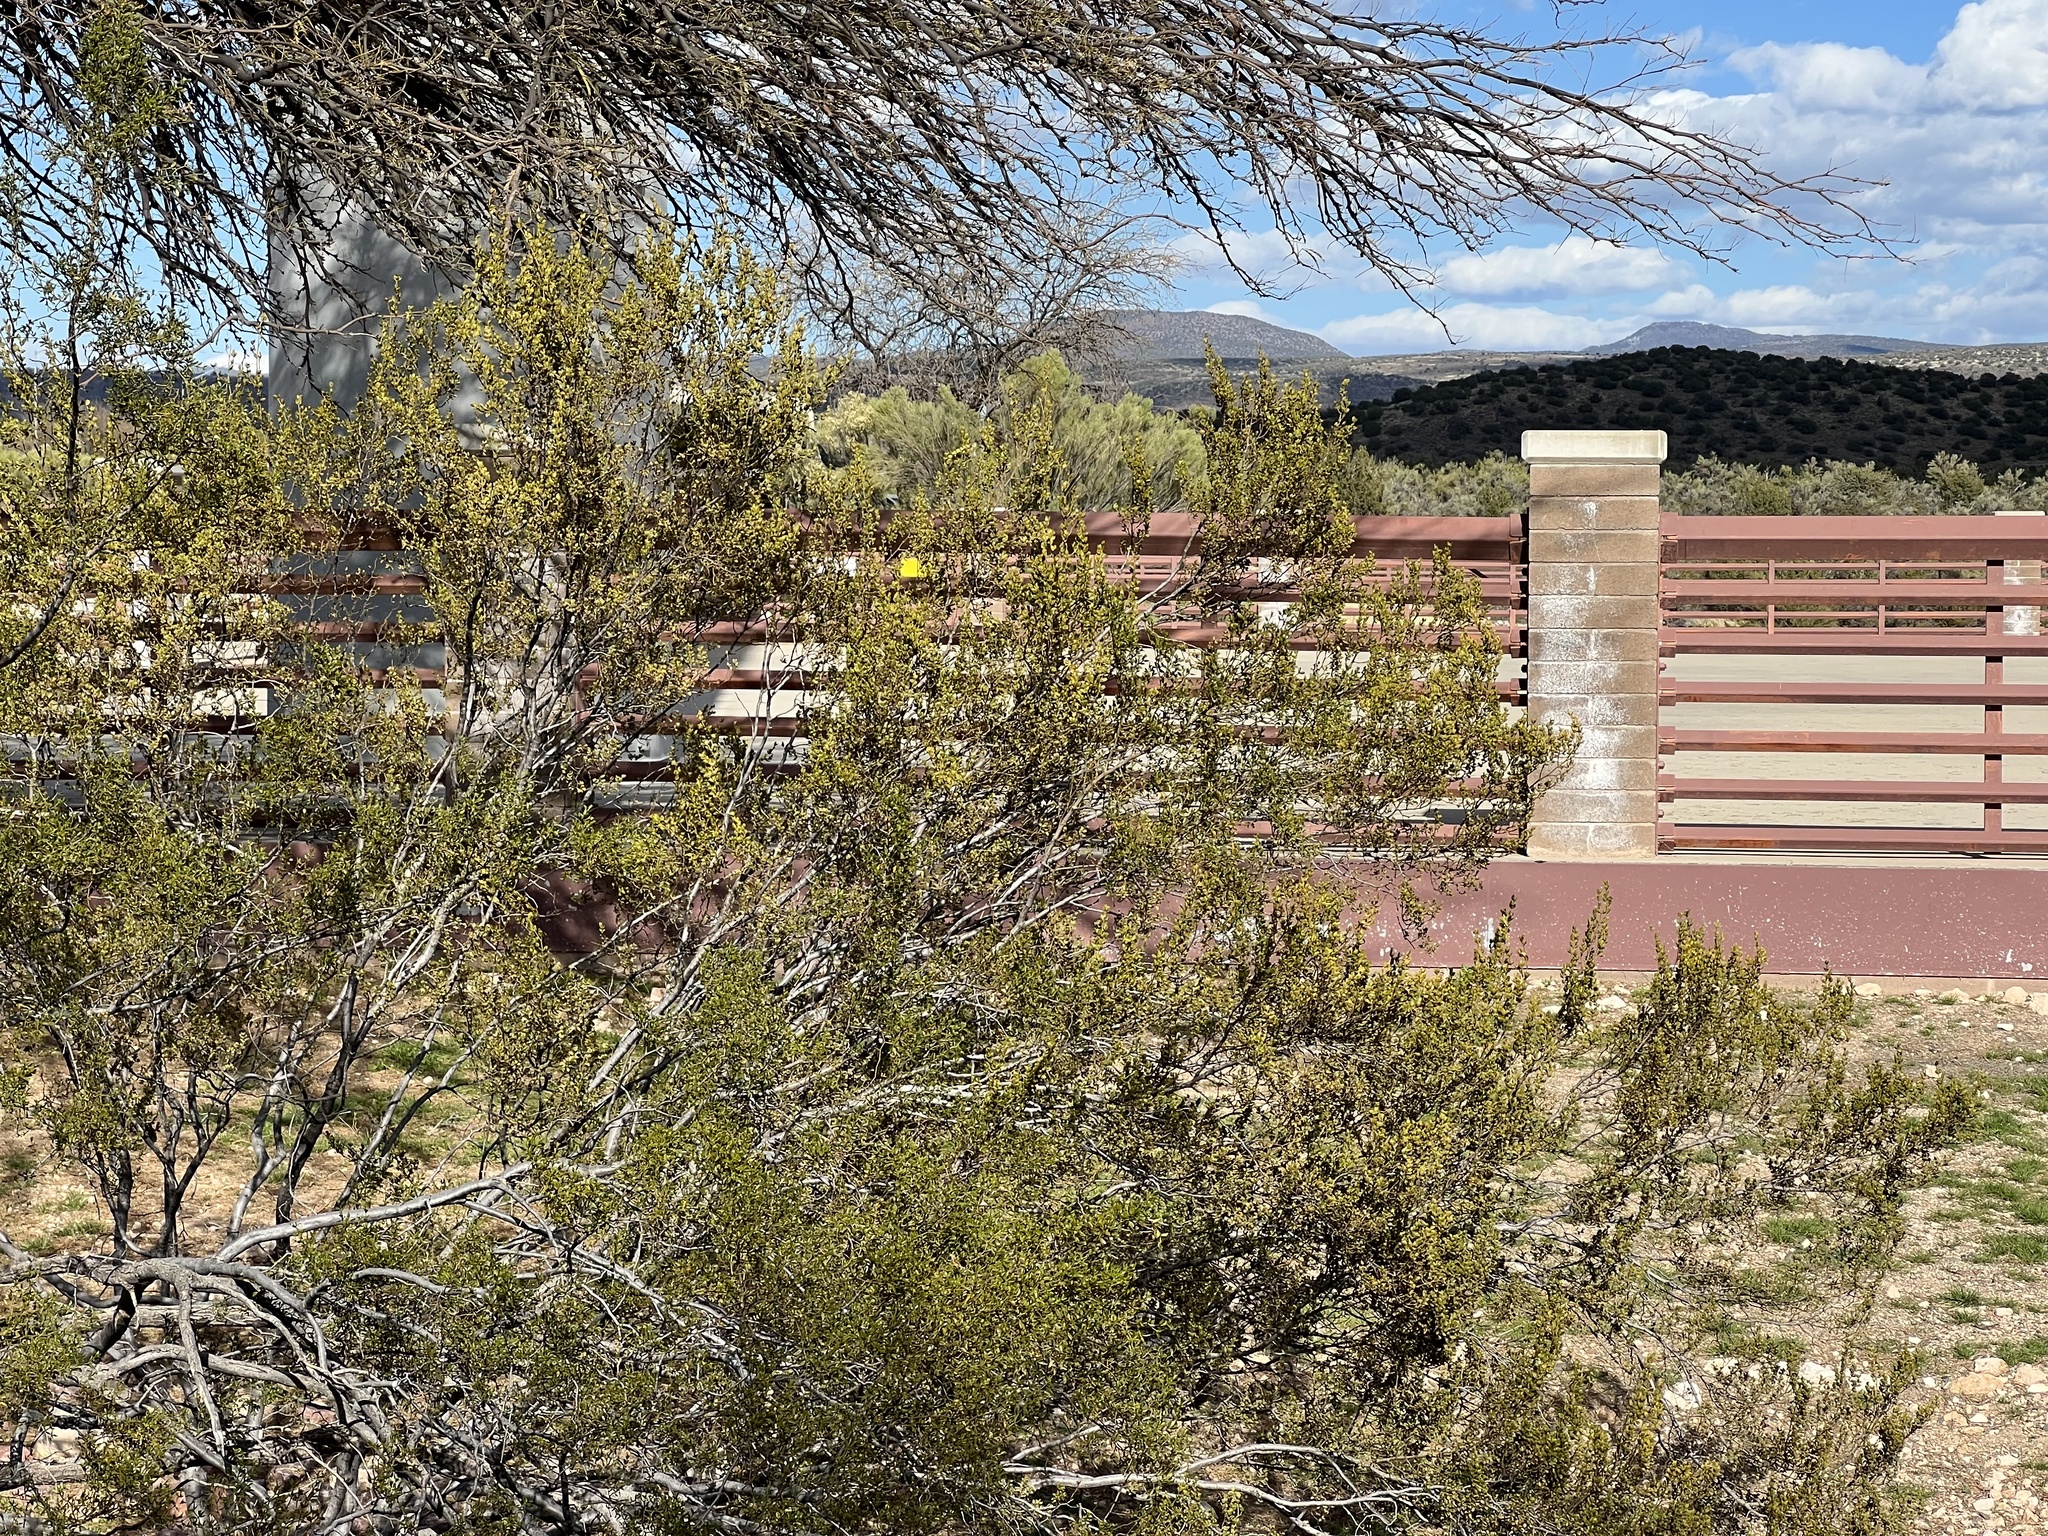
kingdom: Plantae
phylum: Tracheophyta
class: Magnoliopsida
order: Zygophyllales
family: Zygophyllaceae
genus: Larrea
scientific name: Larrea tridentata
